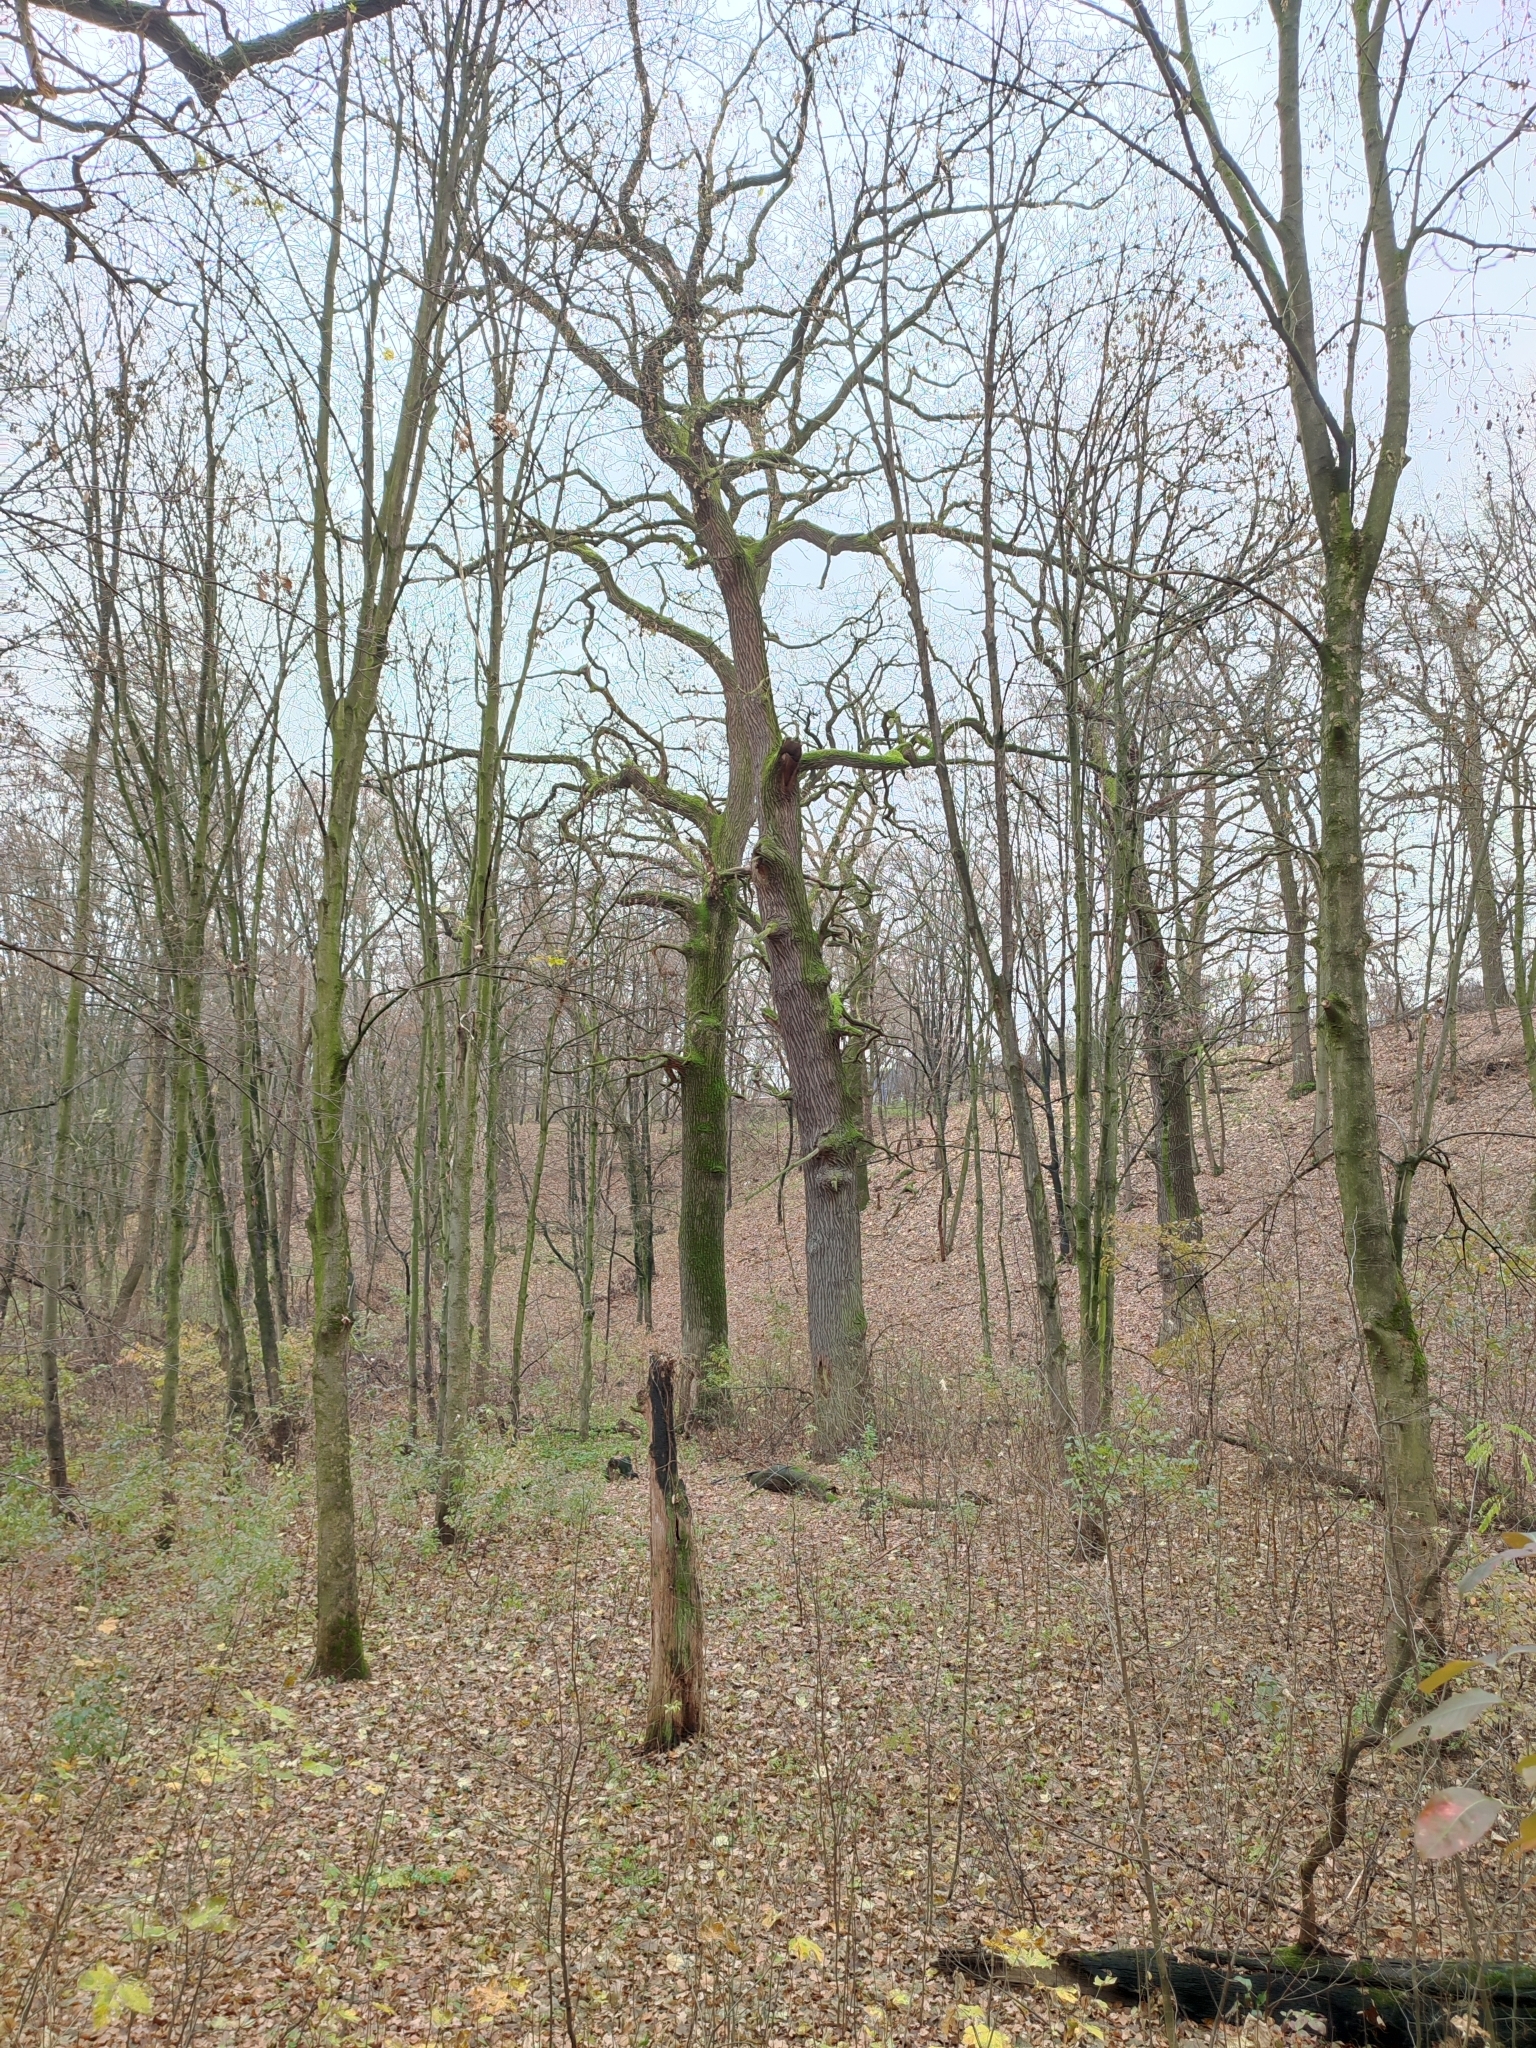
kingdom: Plantae
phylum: Tracheophyta
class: Magnoliopsida
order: Fagales
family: Fagaceae
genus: Quercus
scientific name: Quercus robur
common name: Pedunculate oak
